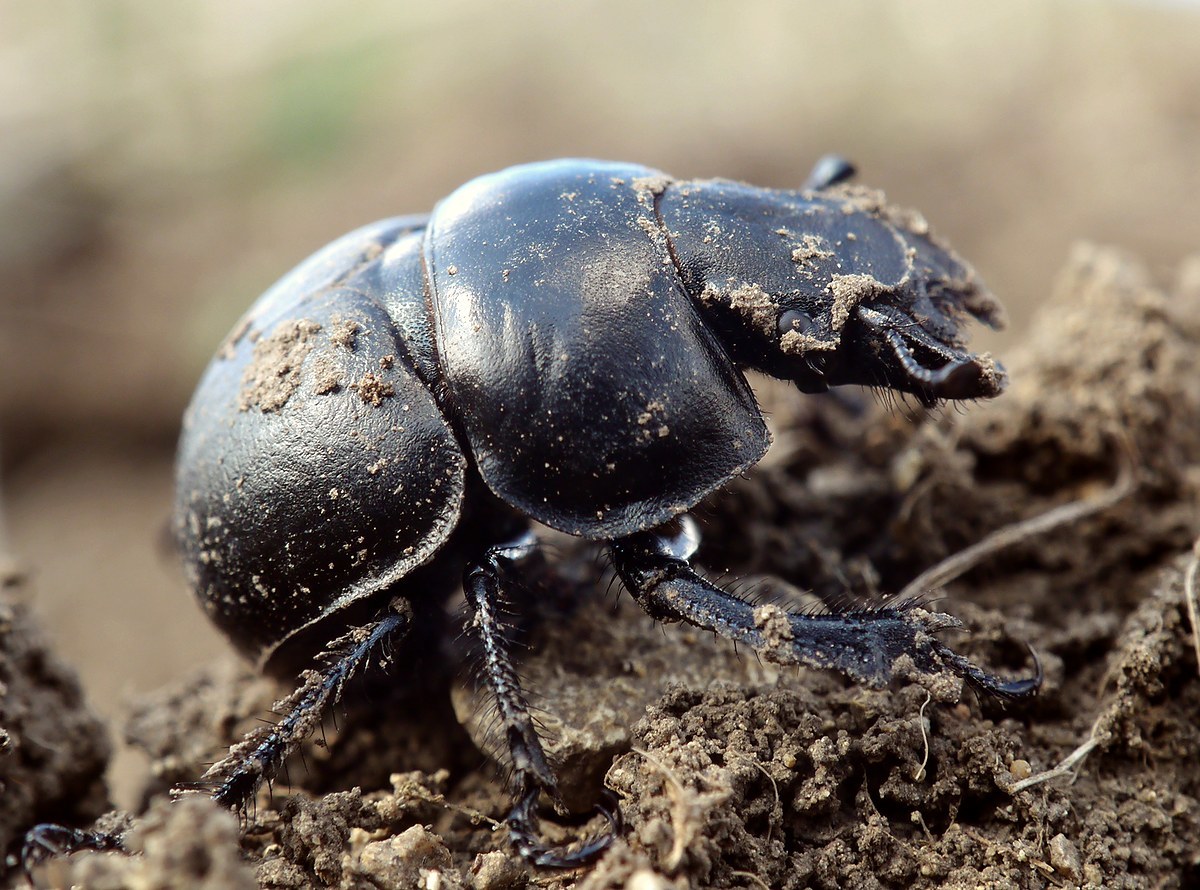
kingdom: Animalia
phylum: Arthropoda
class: Insecta
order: Coleoptera
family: Geotrupidae
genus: Lethrus
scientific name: Lethrus apterus
